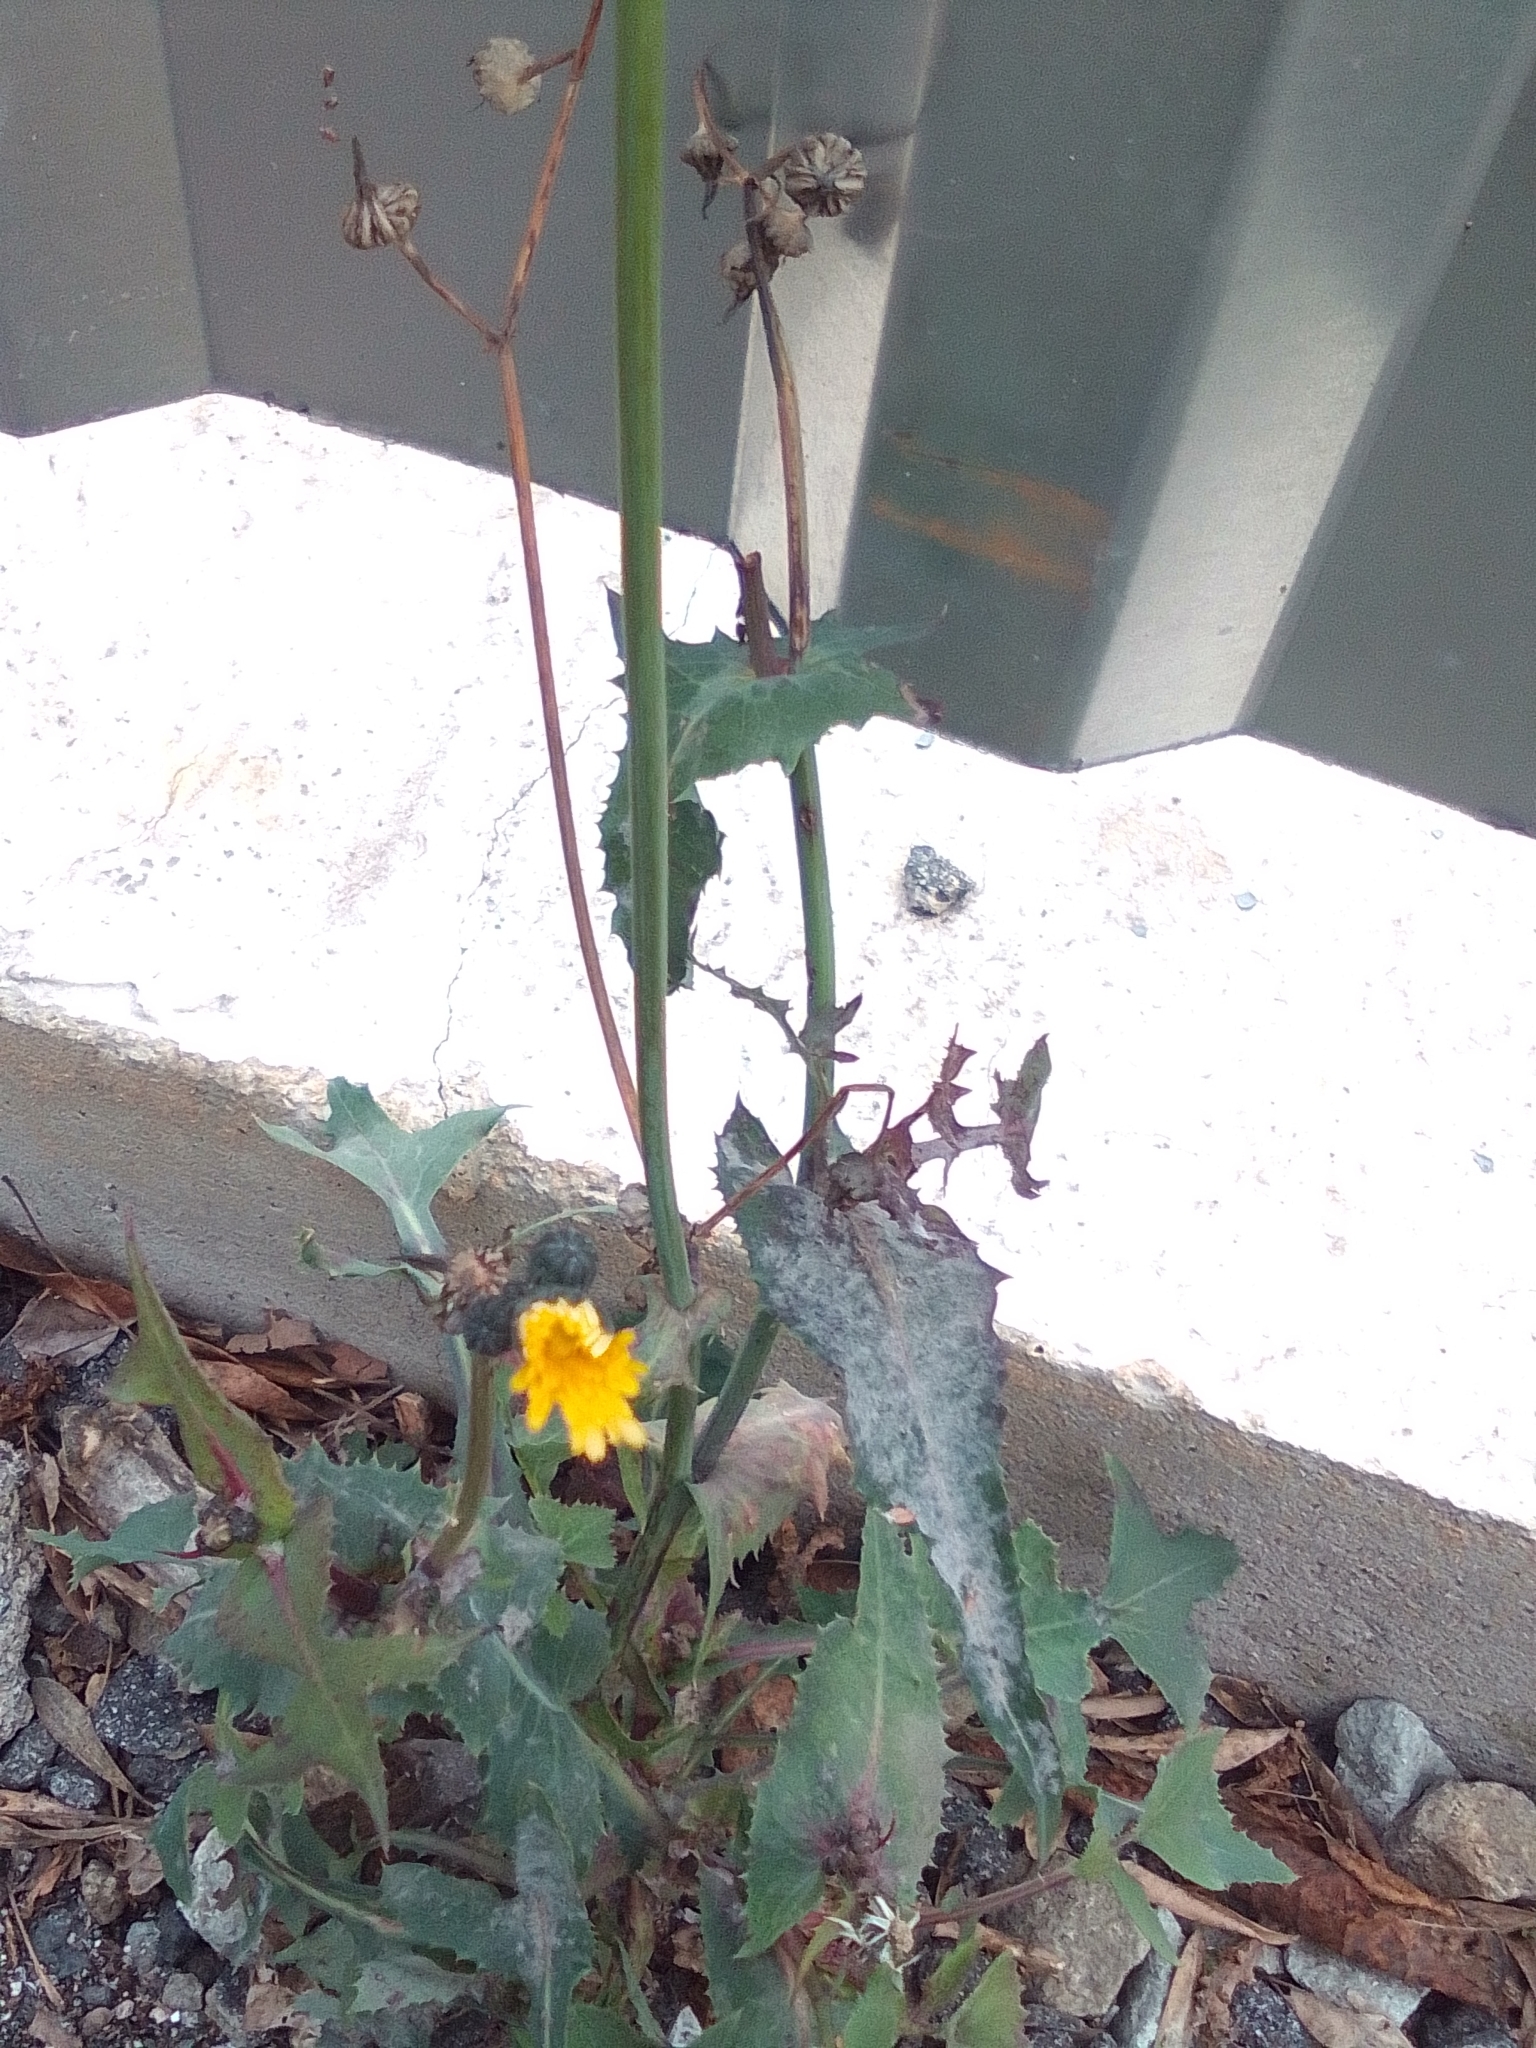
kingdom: Plantae
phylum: Tracheophyta
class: Magnoliopsida
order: Asterales
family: Asteraceae
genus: Sonchus
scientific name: Sonchus oleraceus
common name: Common sowthistle
